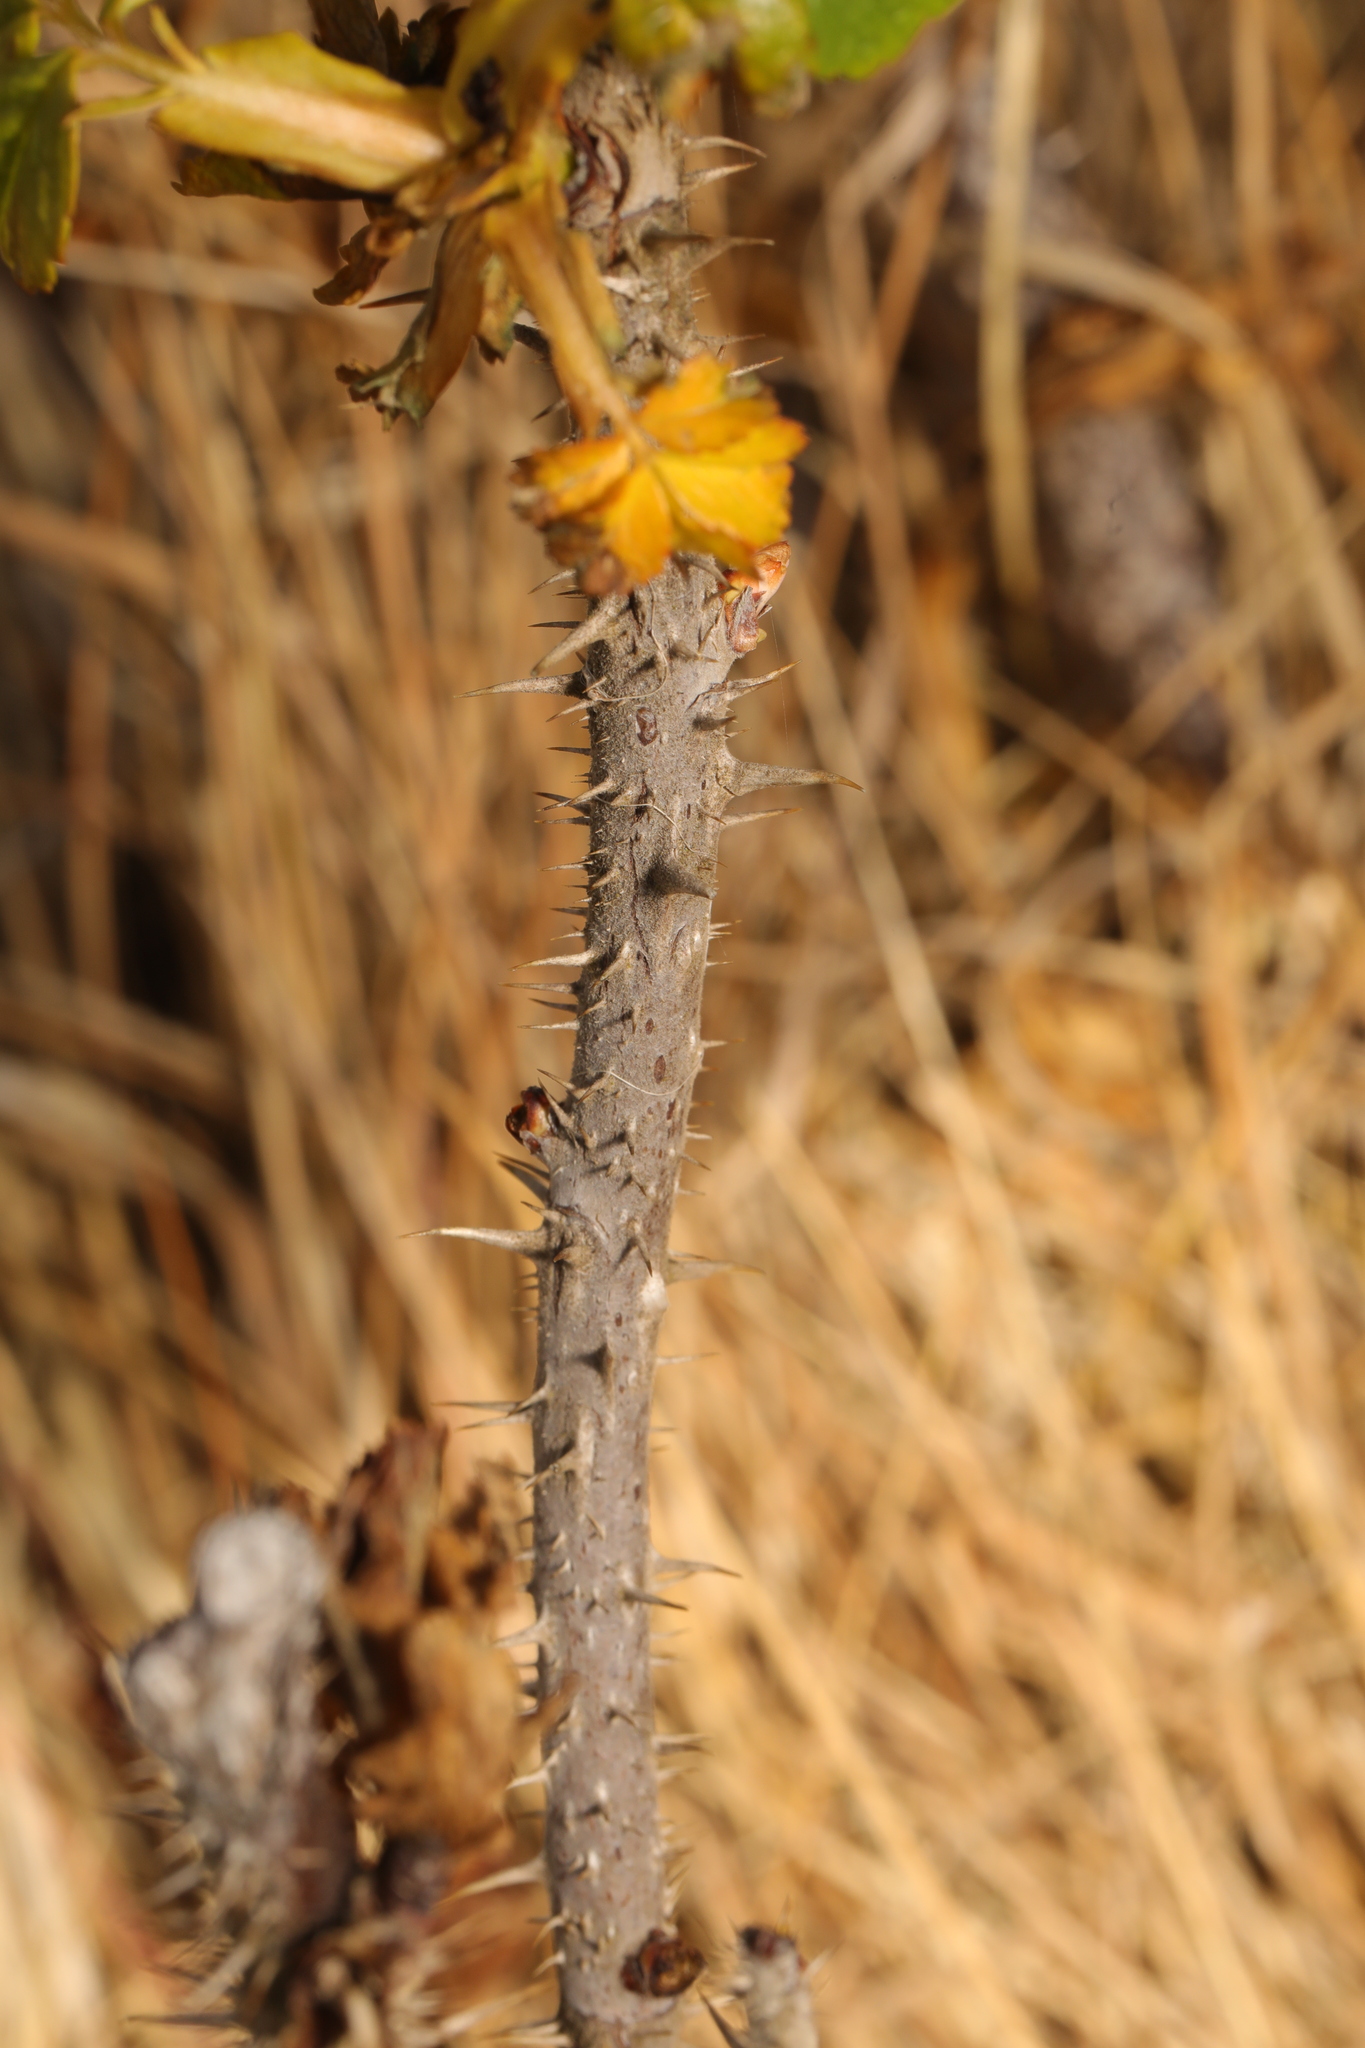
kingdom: Plantae
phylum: Tracheophyta
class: Magnoliopsida
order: Rosales
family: Rosaceae
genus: Rosa
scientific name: Rosa rugosa
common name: Japanese rose
